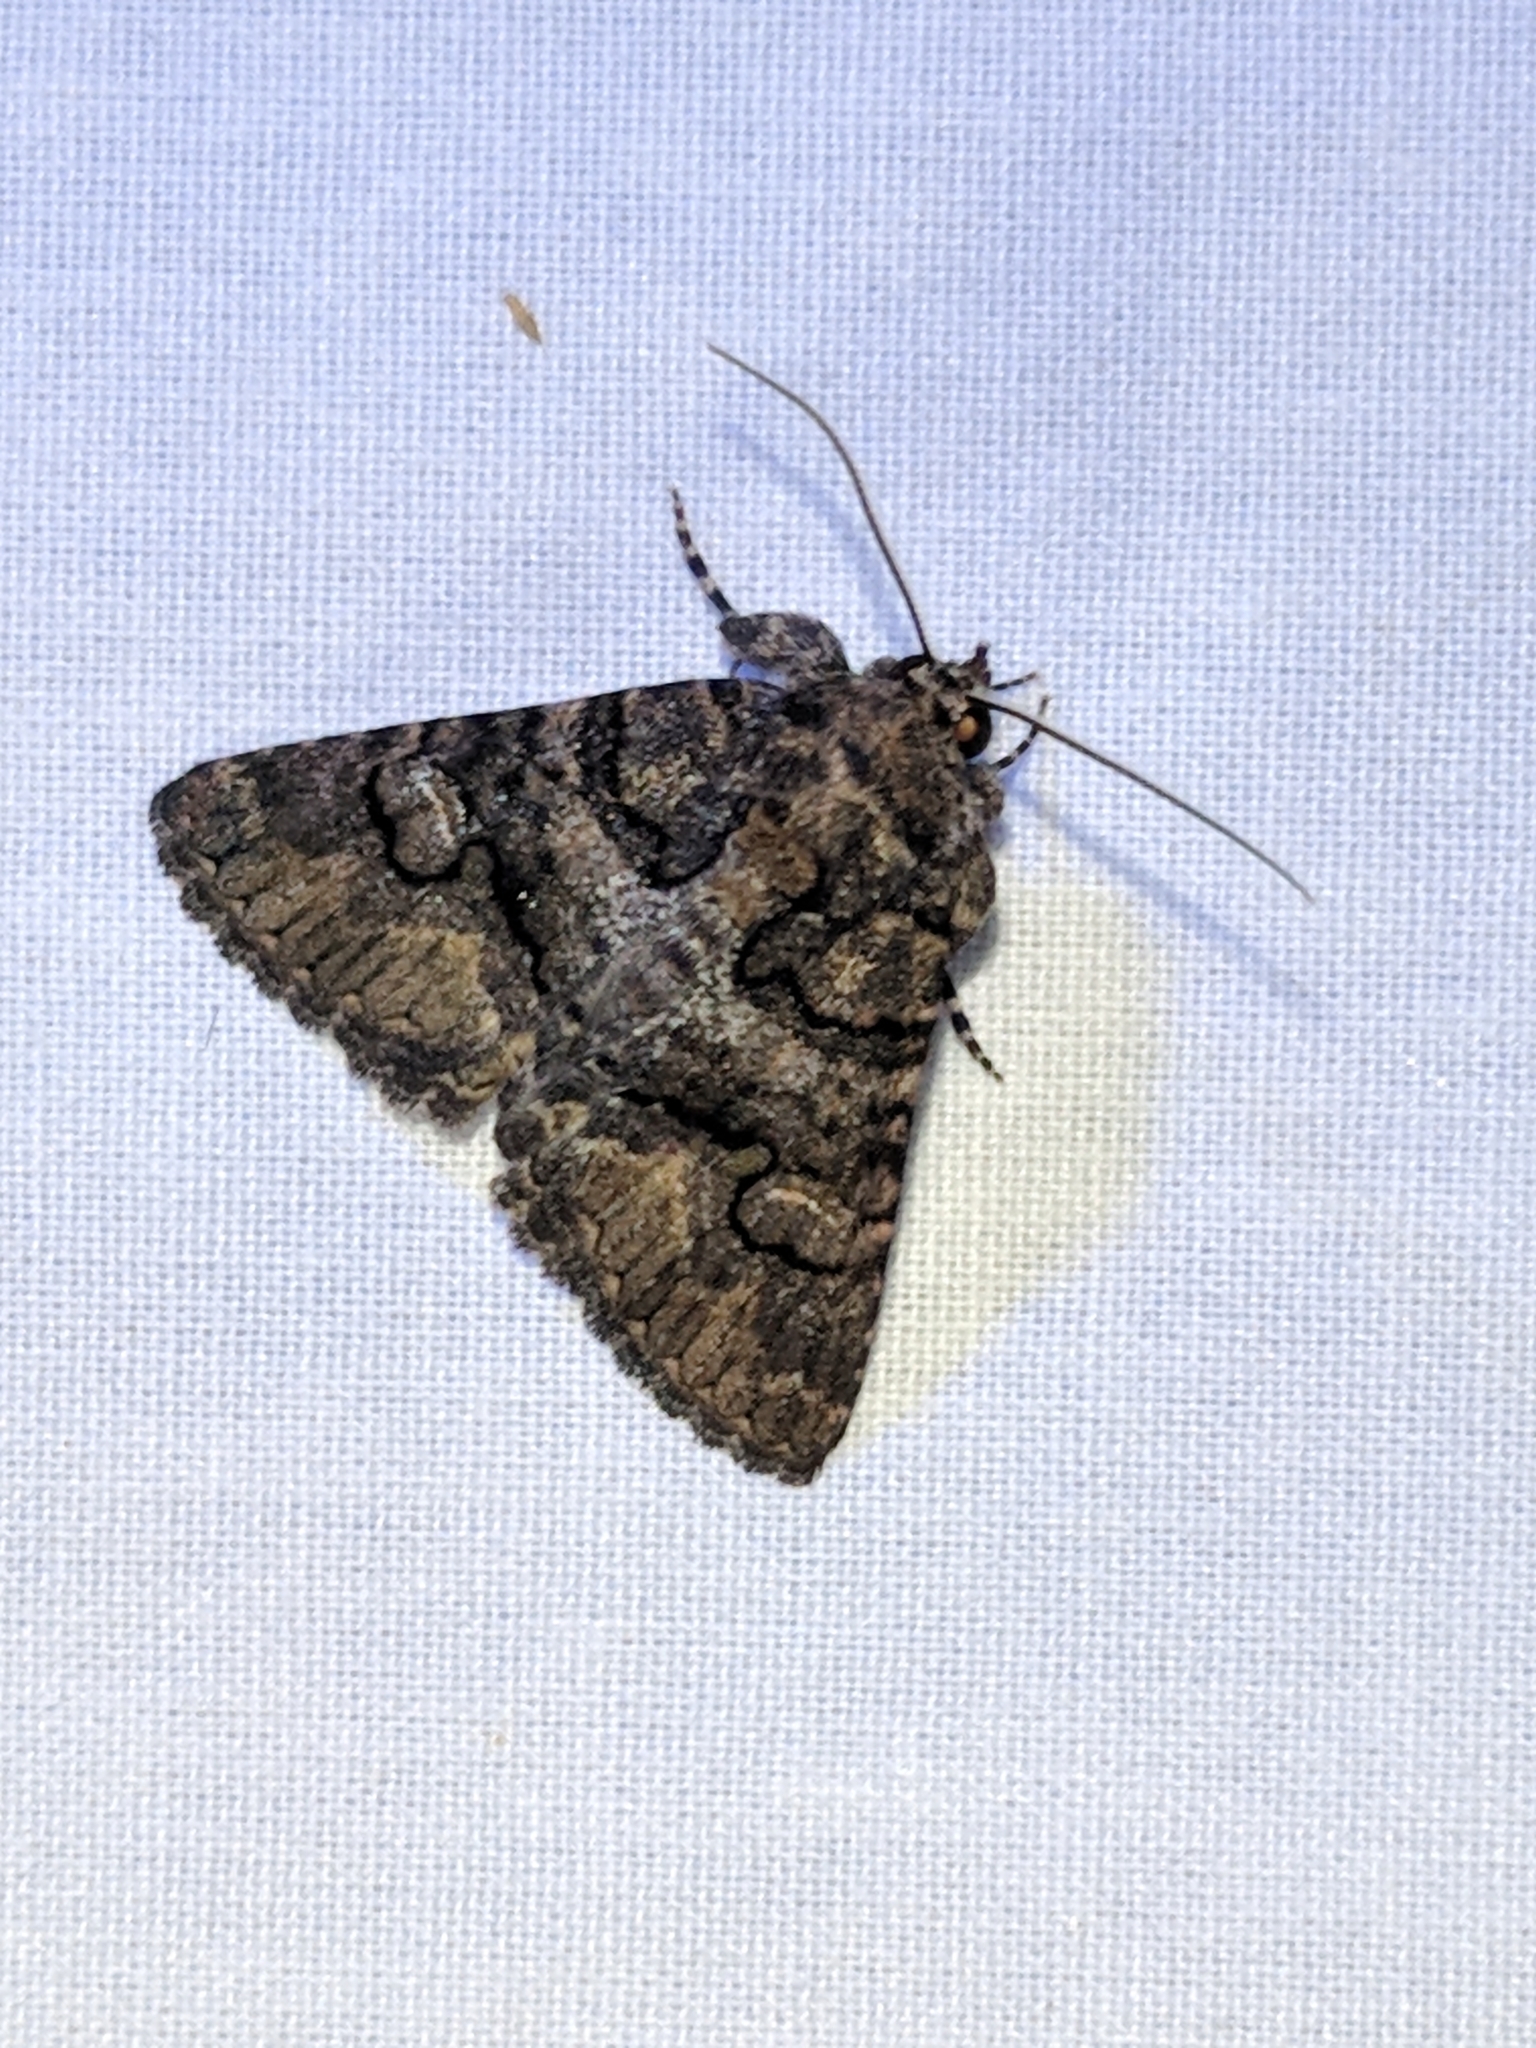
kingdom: Animalia
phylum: Arthropoda
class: Insecta
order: Lepidoptera
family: Erebidae
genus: Elousa
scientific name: Elousa mima
